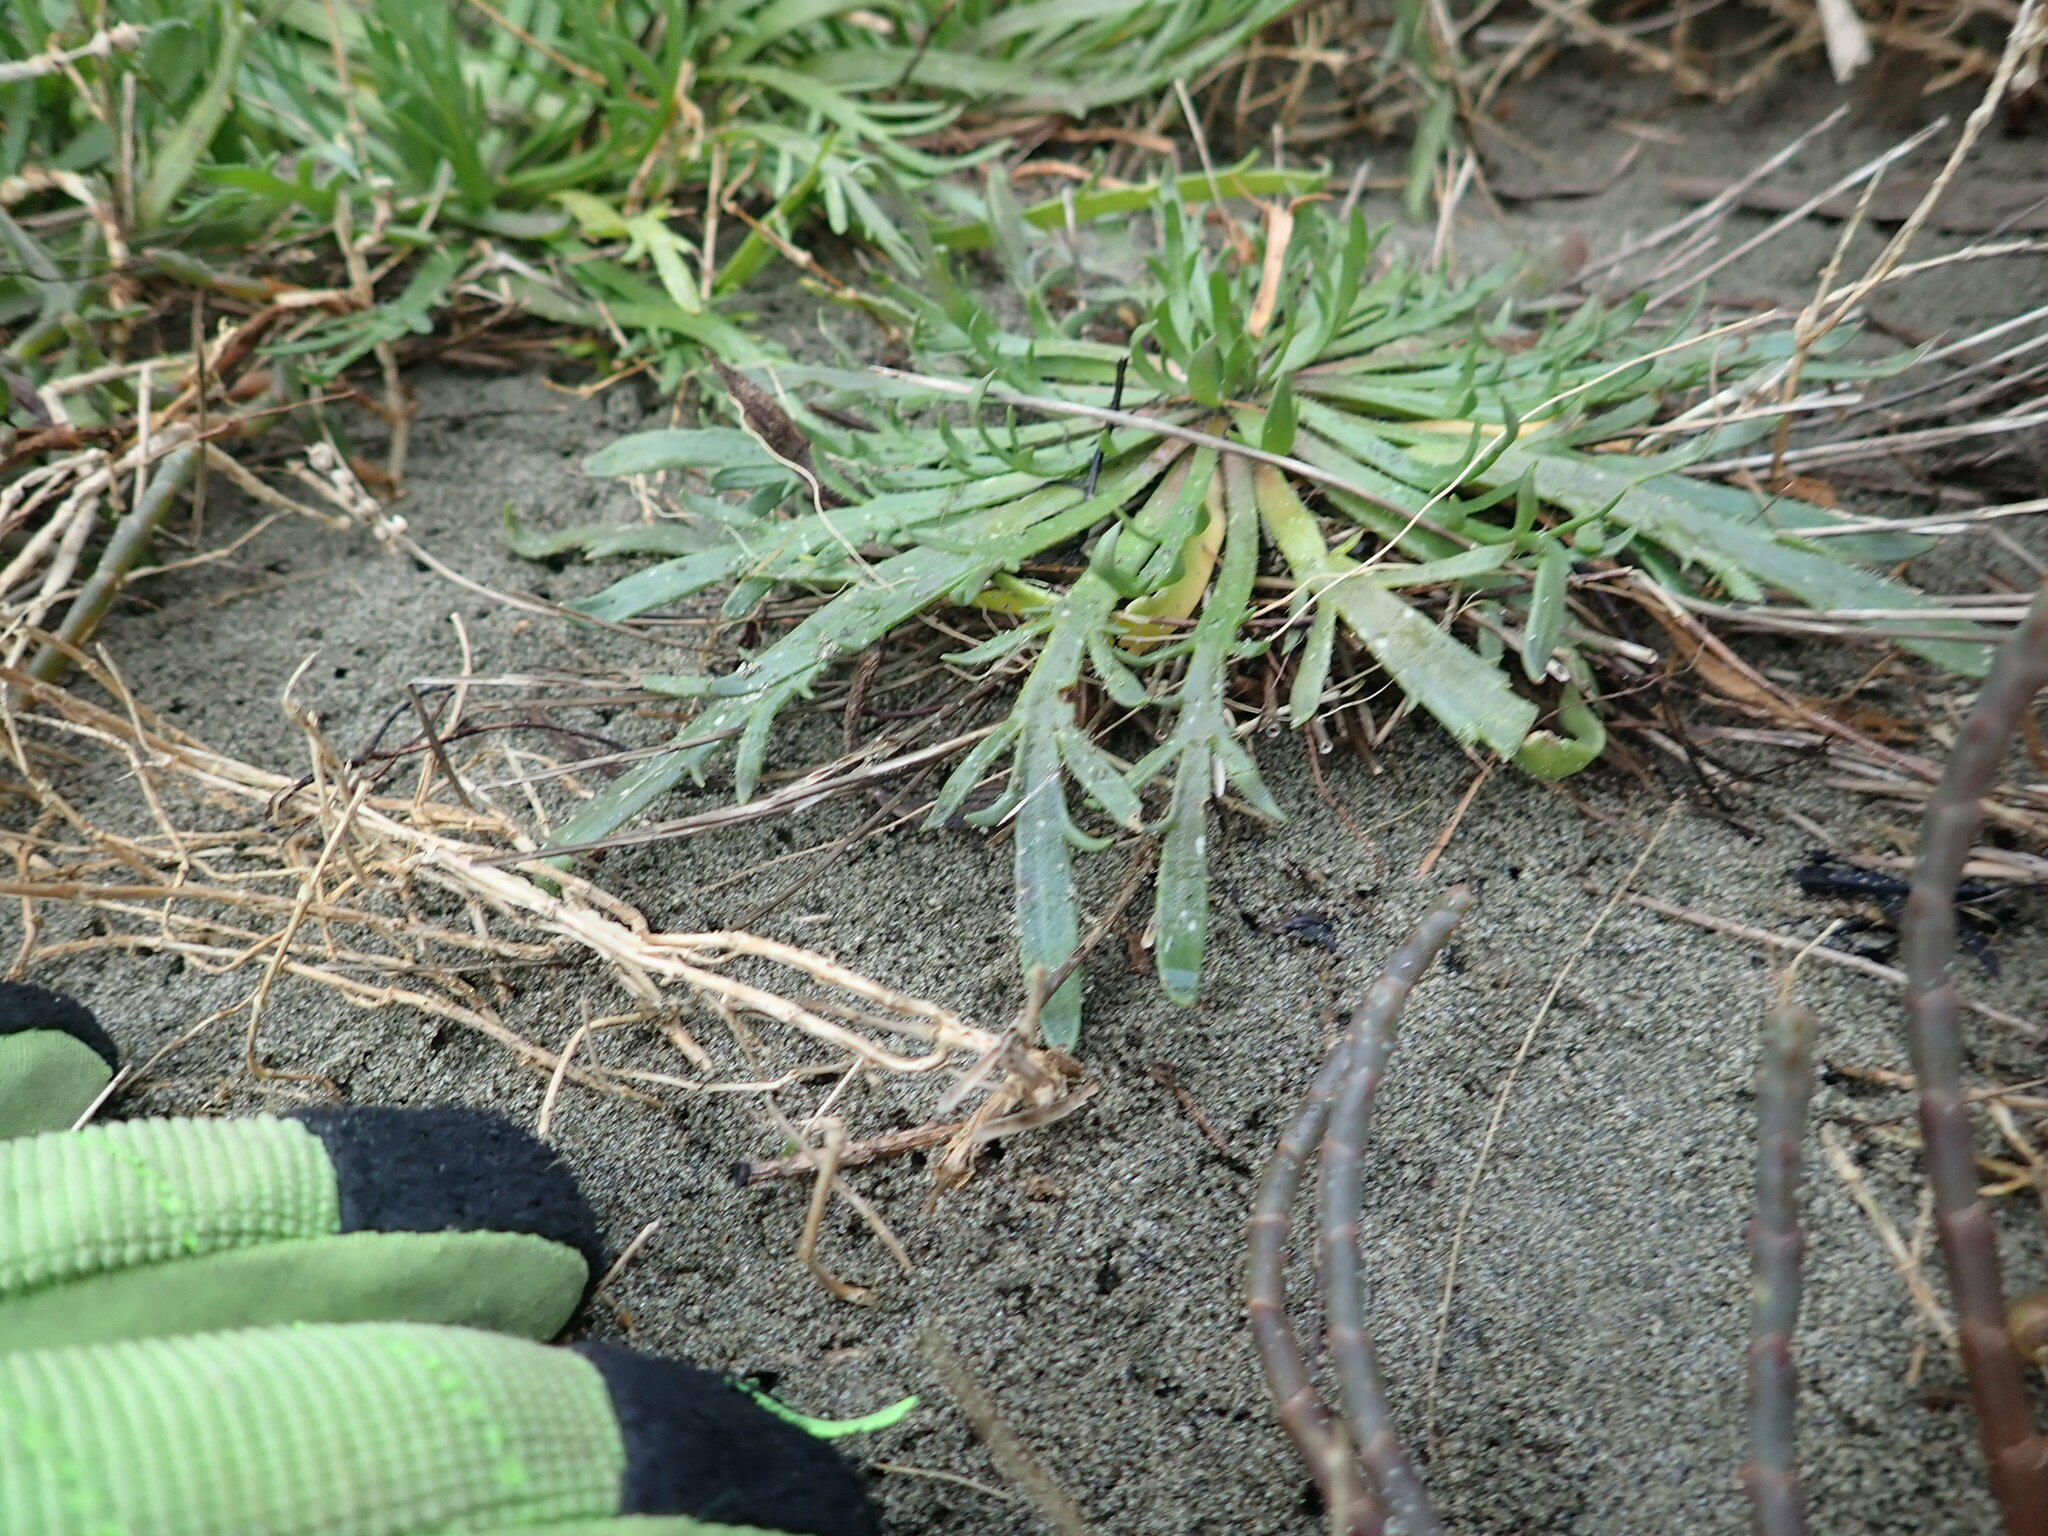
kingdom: Plantae
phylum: Tracheophyta
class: Magnoliopsida
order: Lamiales
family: Plantaginaceae
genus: Plantago
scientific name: Plantago coronopus
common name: Buck's-horn plantain
